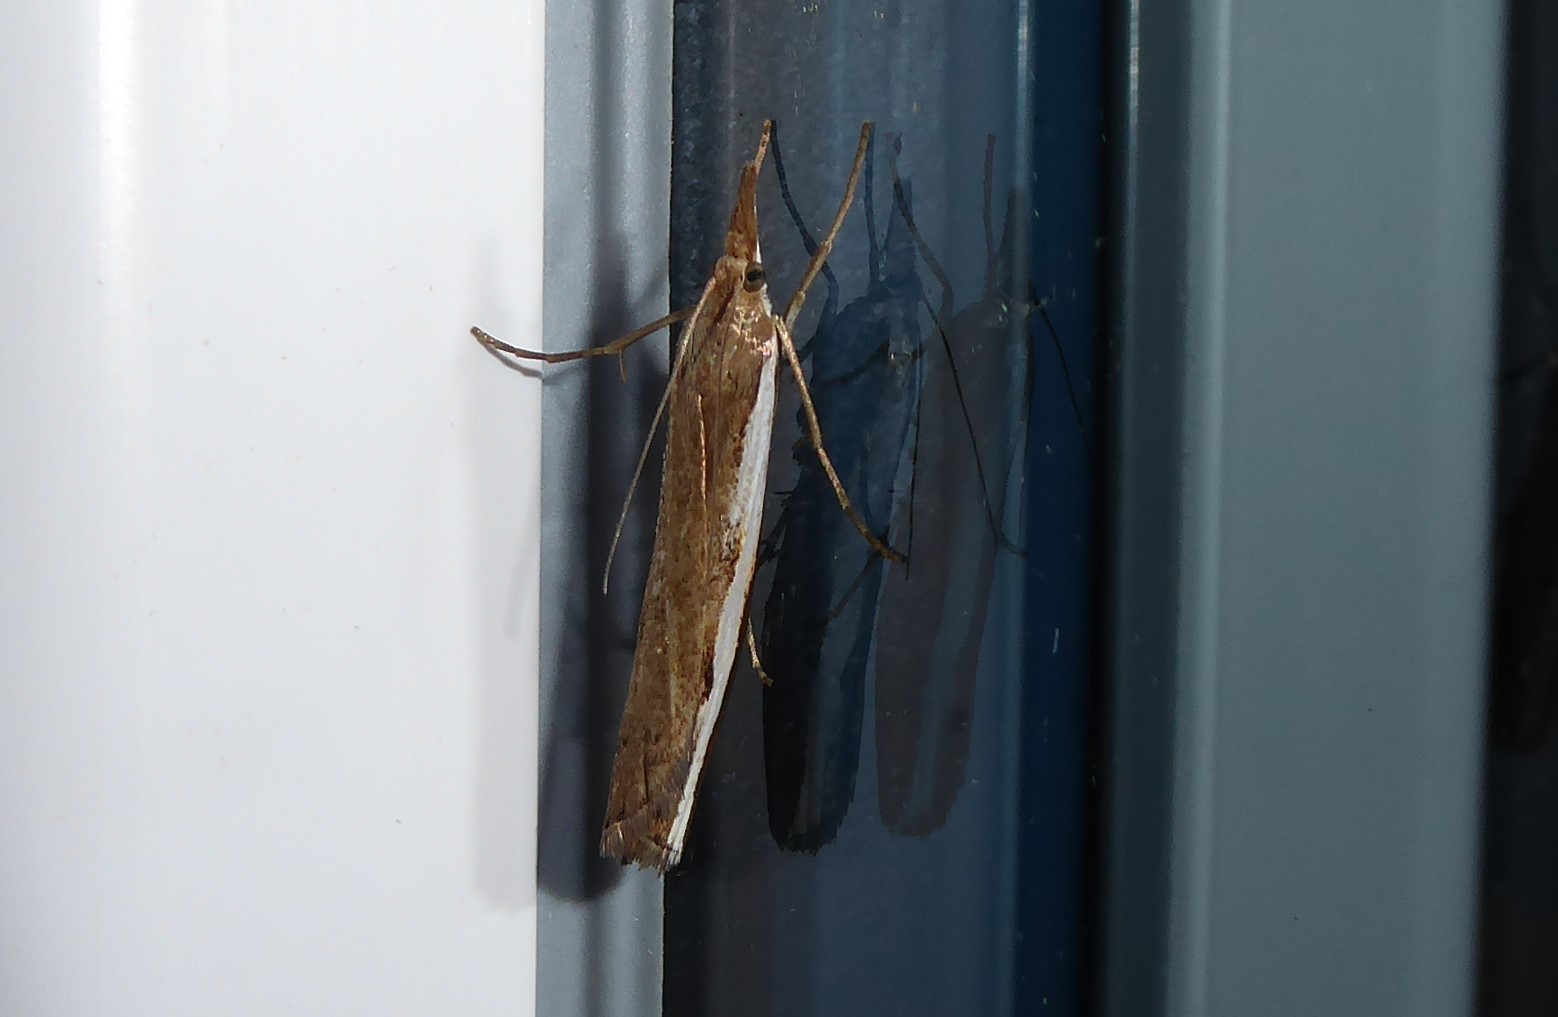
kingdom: Animalia
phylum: Arthropoda
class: Insecta
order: Lepidoptera
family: Crambidae
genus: Orocrambus
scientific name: Orocrambus flexuosellus
